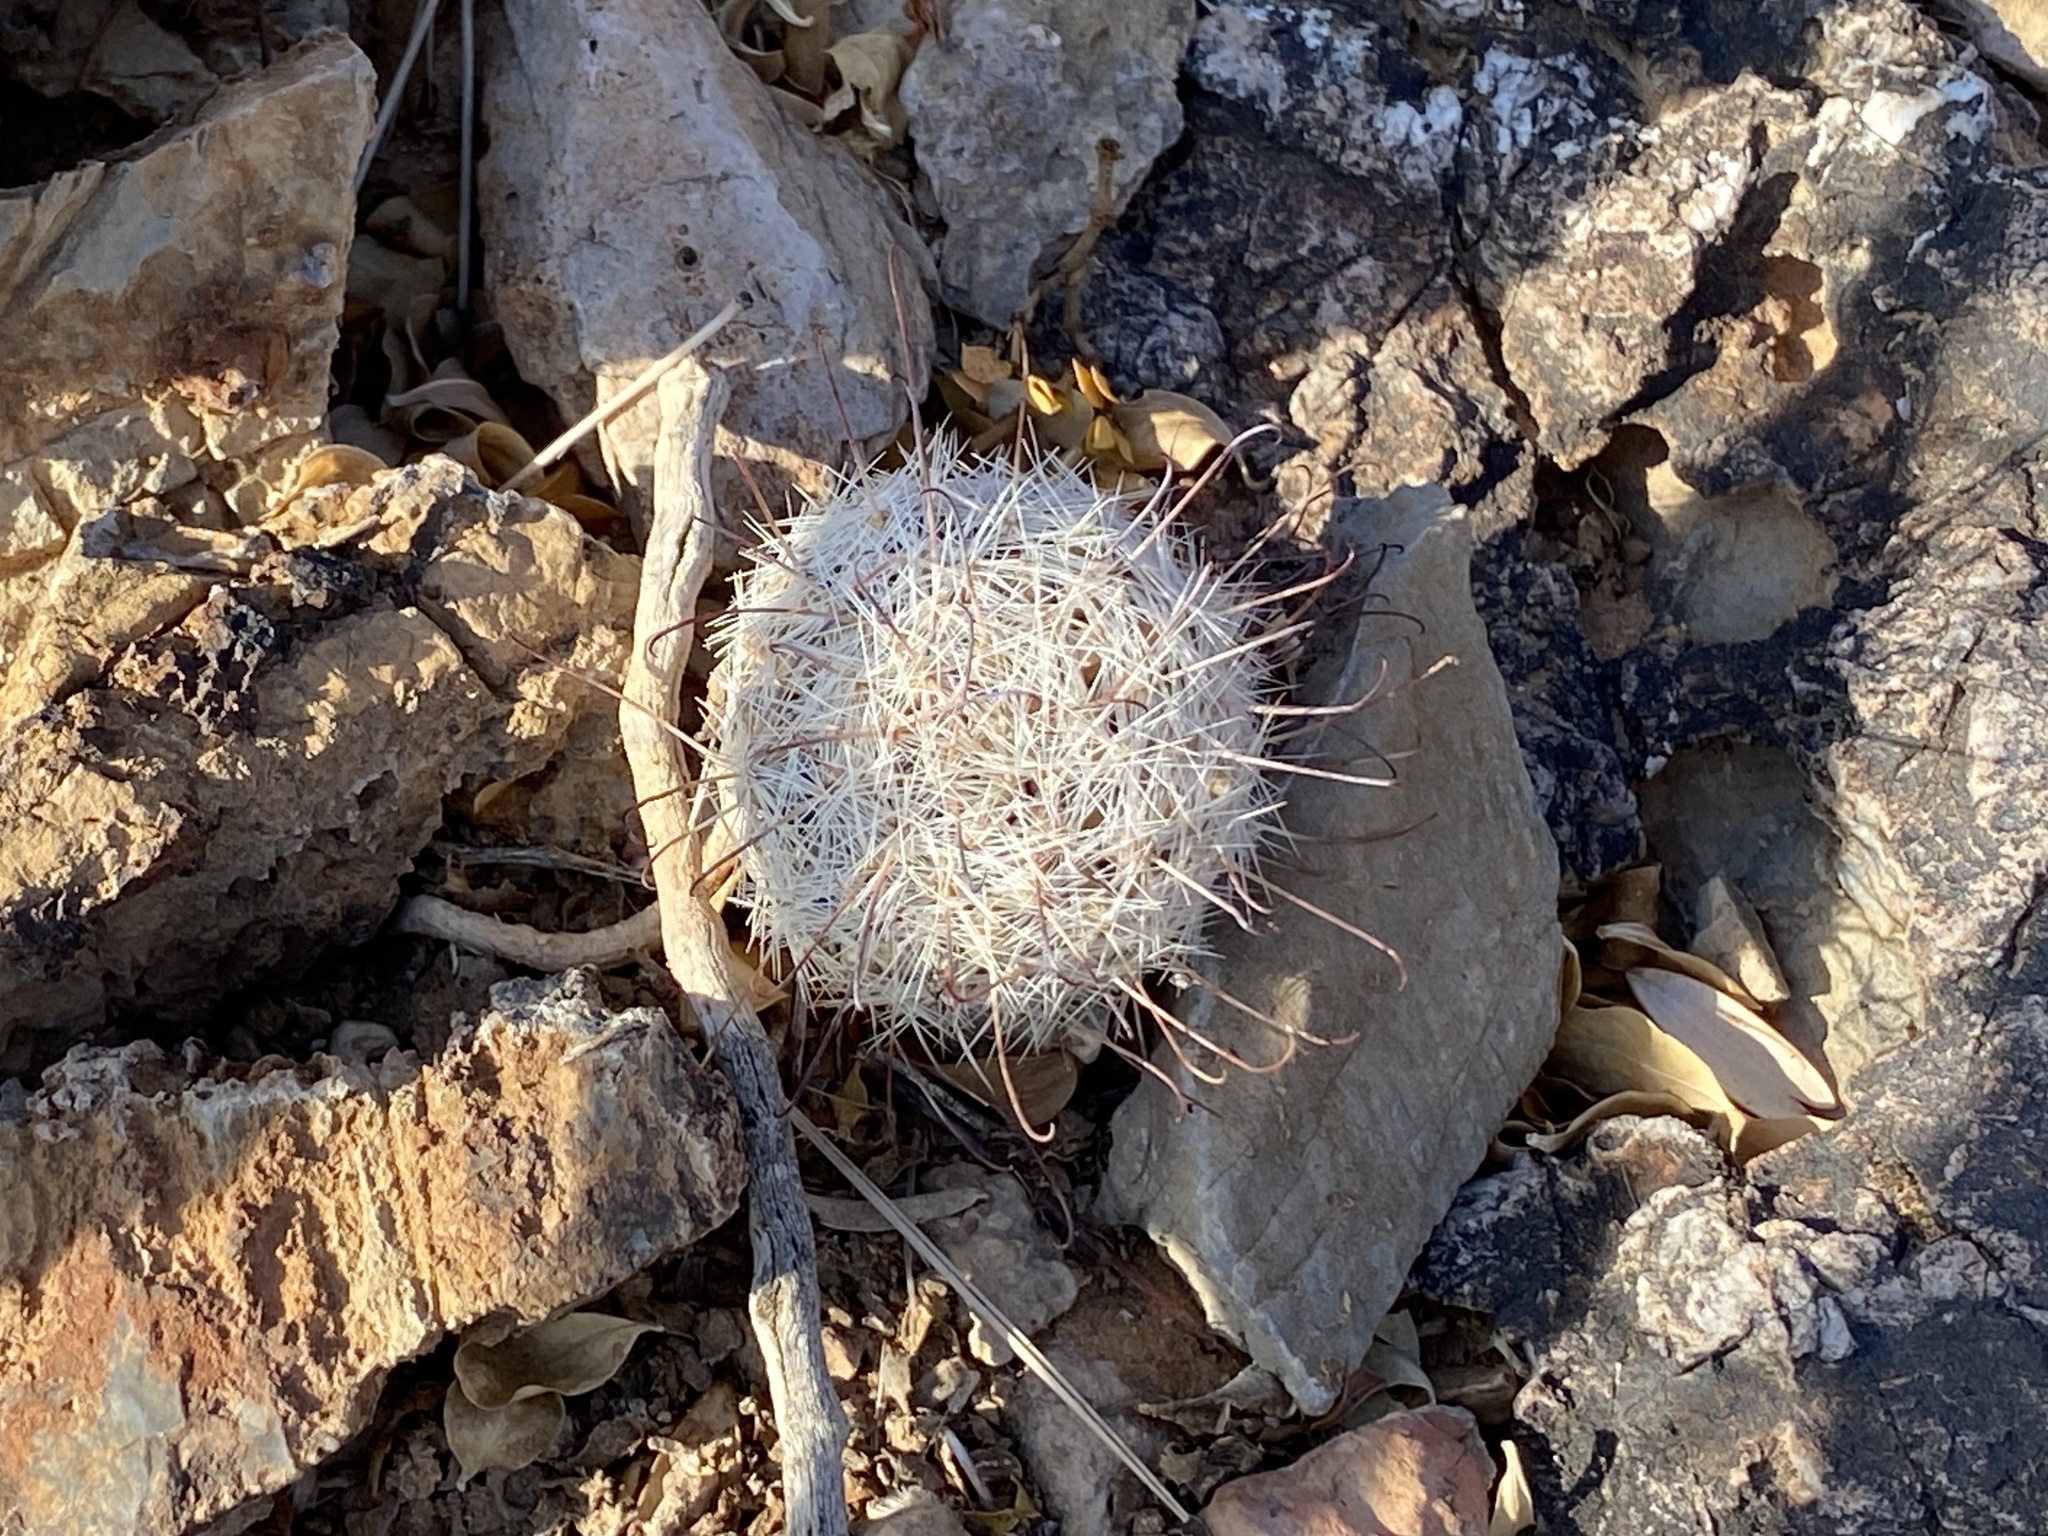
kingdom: Plantae
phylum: Tracheophyta
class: Magnoliopsida
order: Caryophyllales
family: Cactaceae
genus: Cochemiea
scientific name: Cochemiea grahamii
